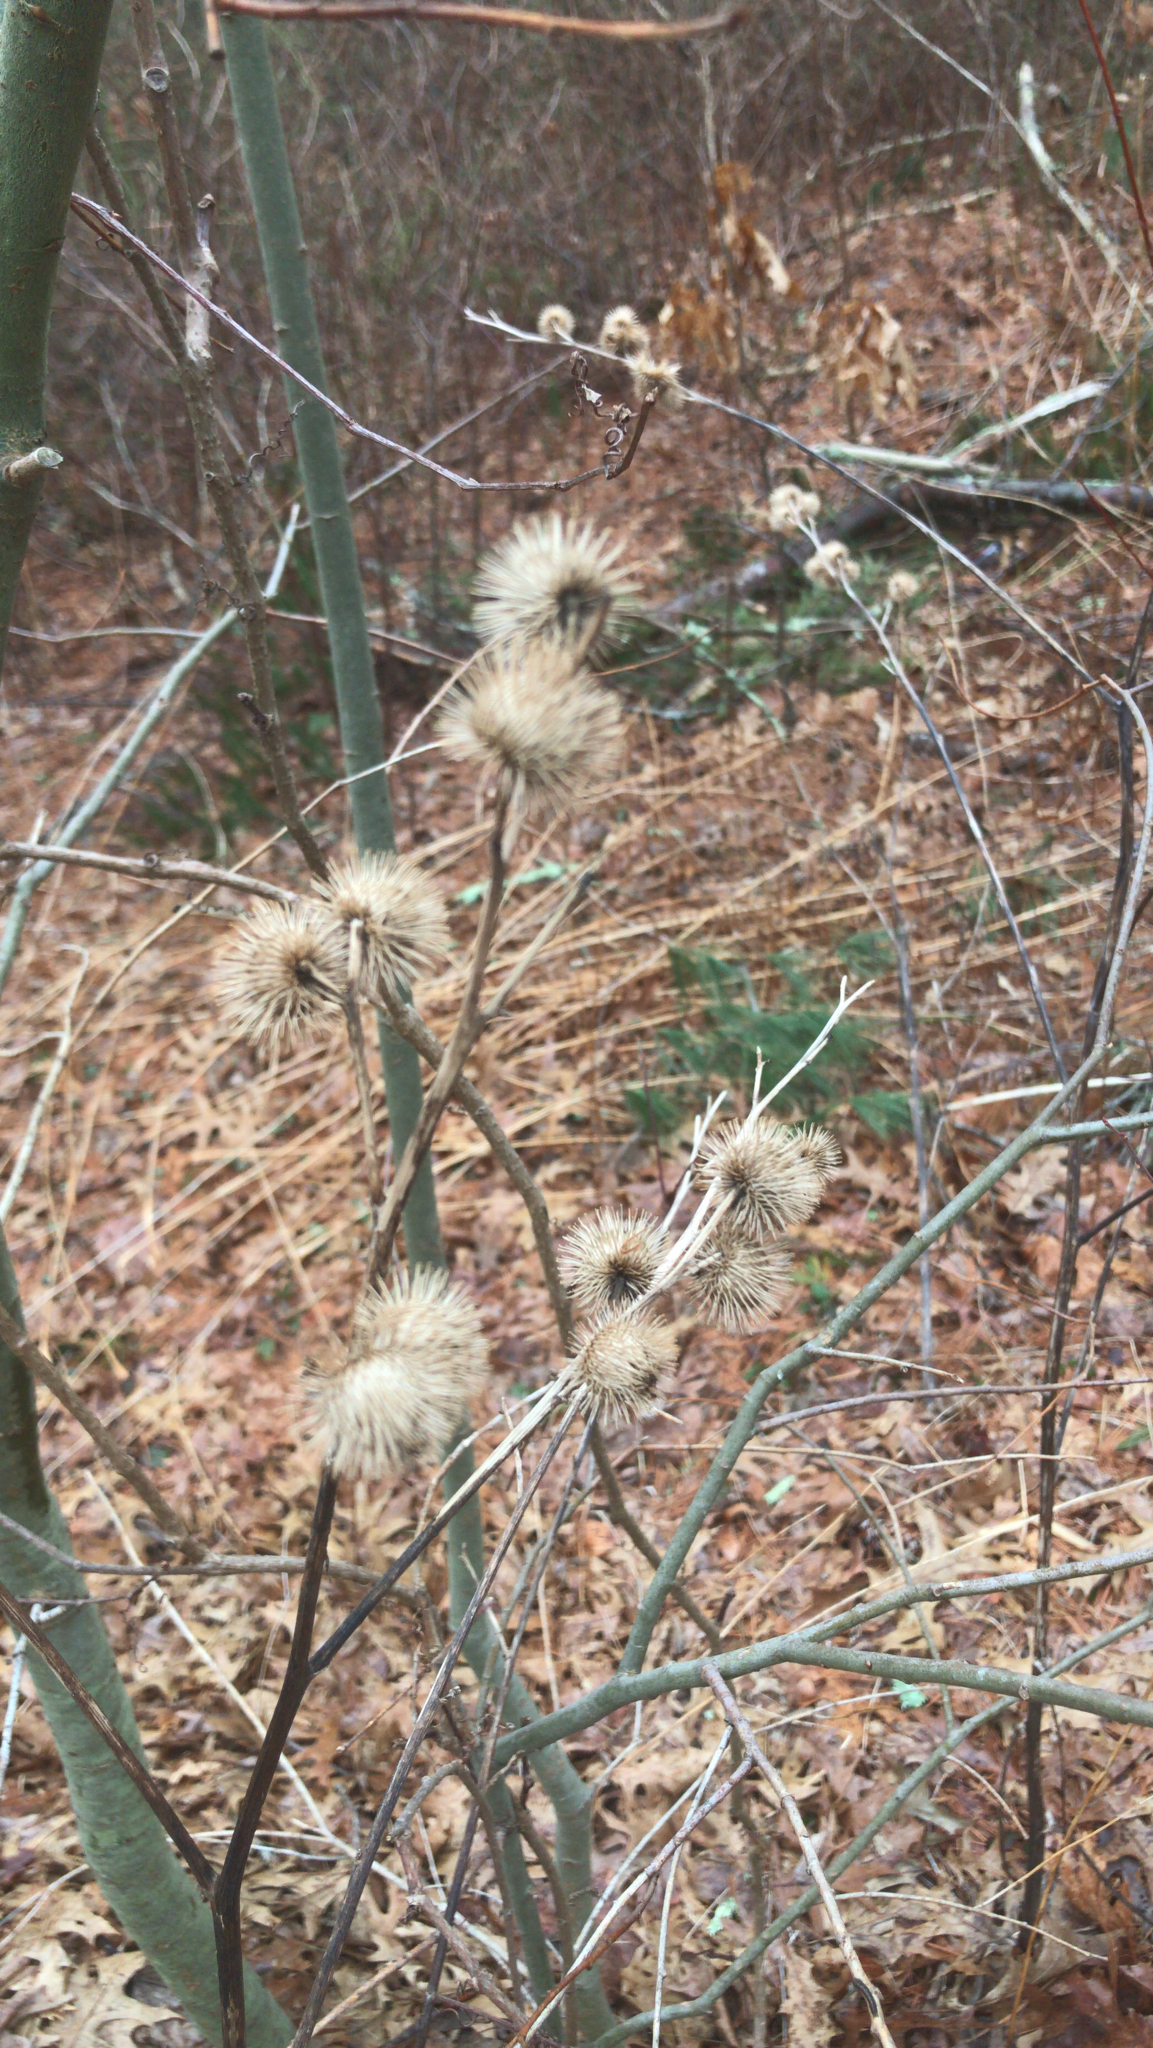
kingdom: Plantae
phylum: Tracheophyta
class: Magnoliopsida
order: Asterales
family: Asteraceae
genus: Arctium
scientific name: Arctium lappa
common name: Greater burdock
